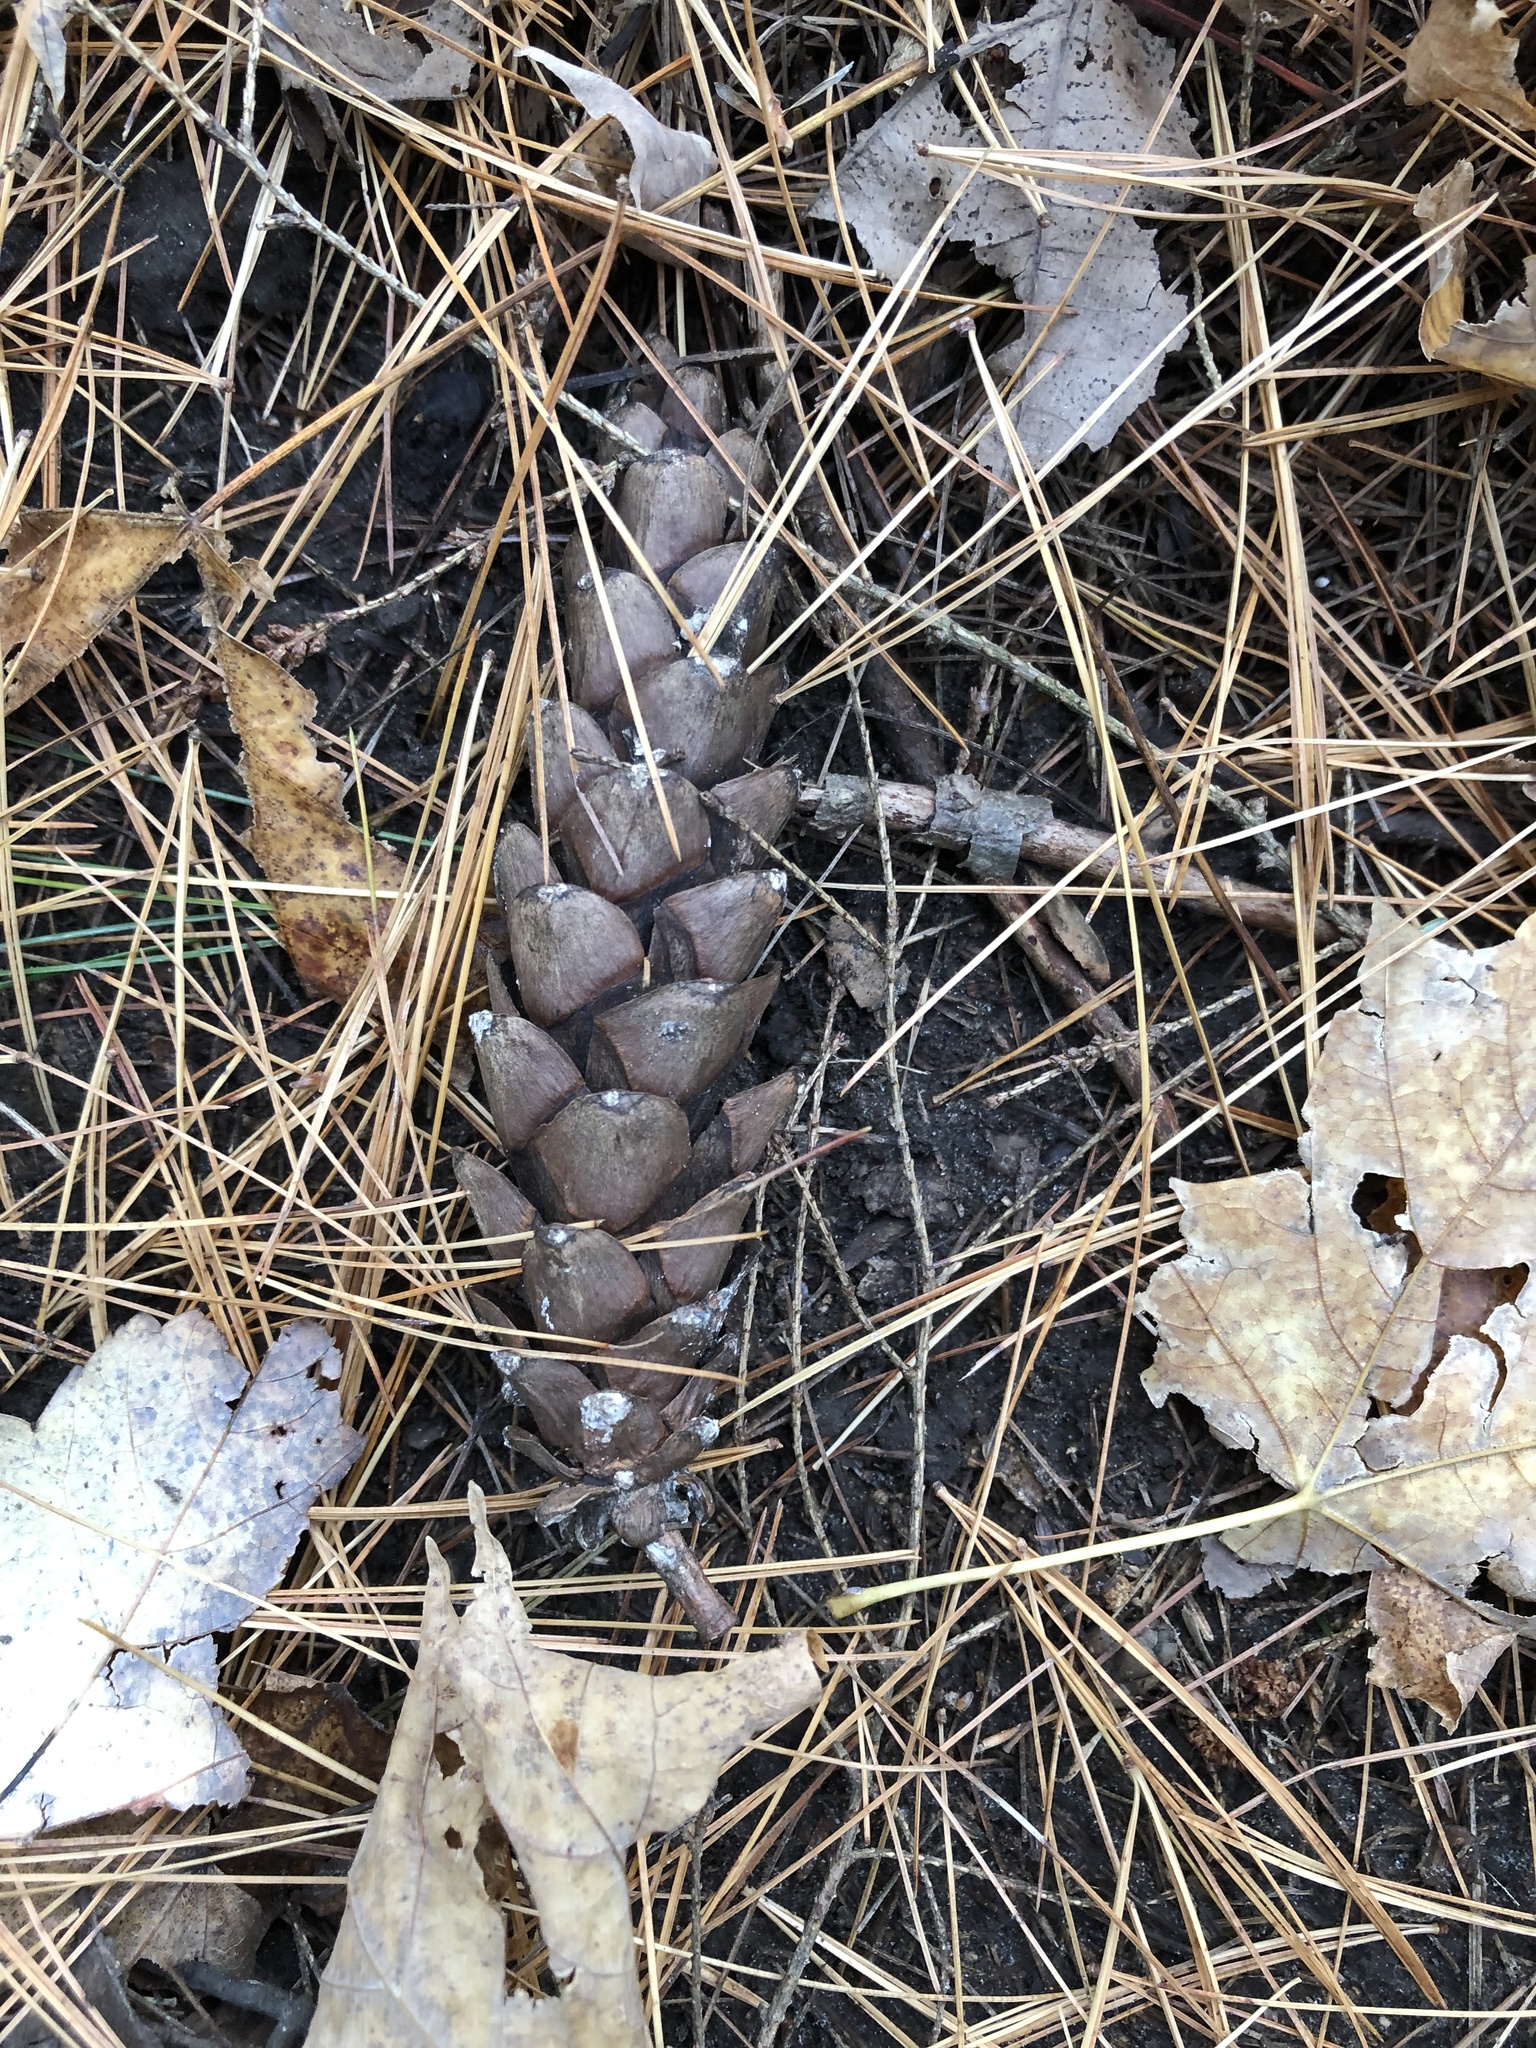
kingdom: Plantae
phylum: Tracheophyta
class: Pinopsida
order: Pinales
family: Pinaceae
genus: Pinus
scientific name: Pinus strobus
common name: Weymouth pine
